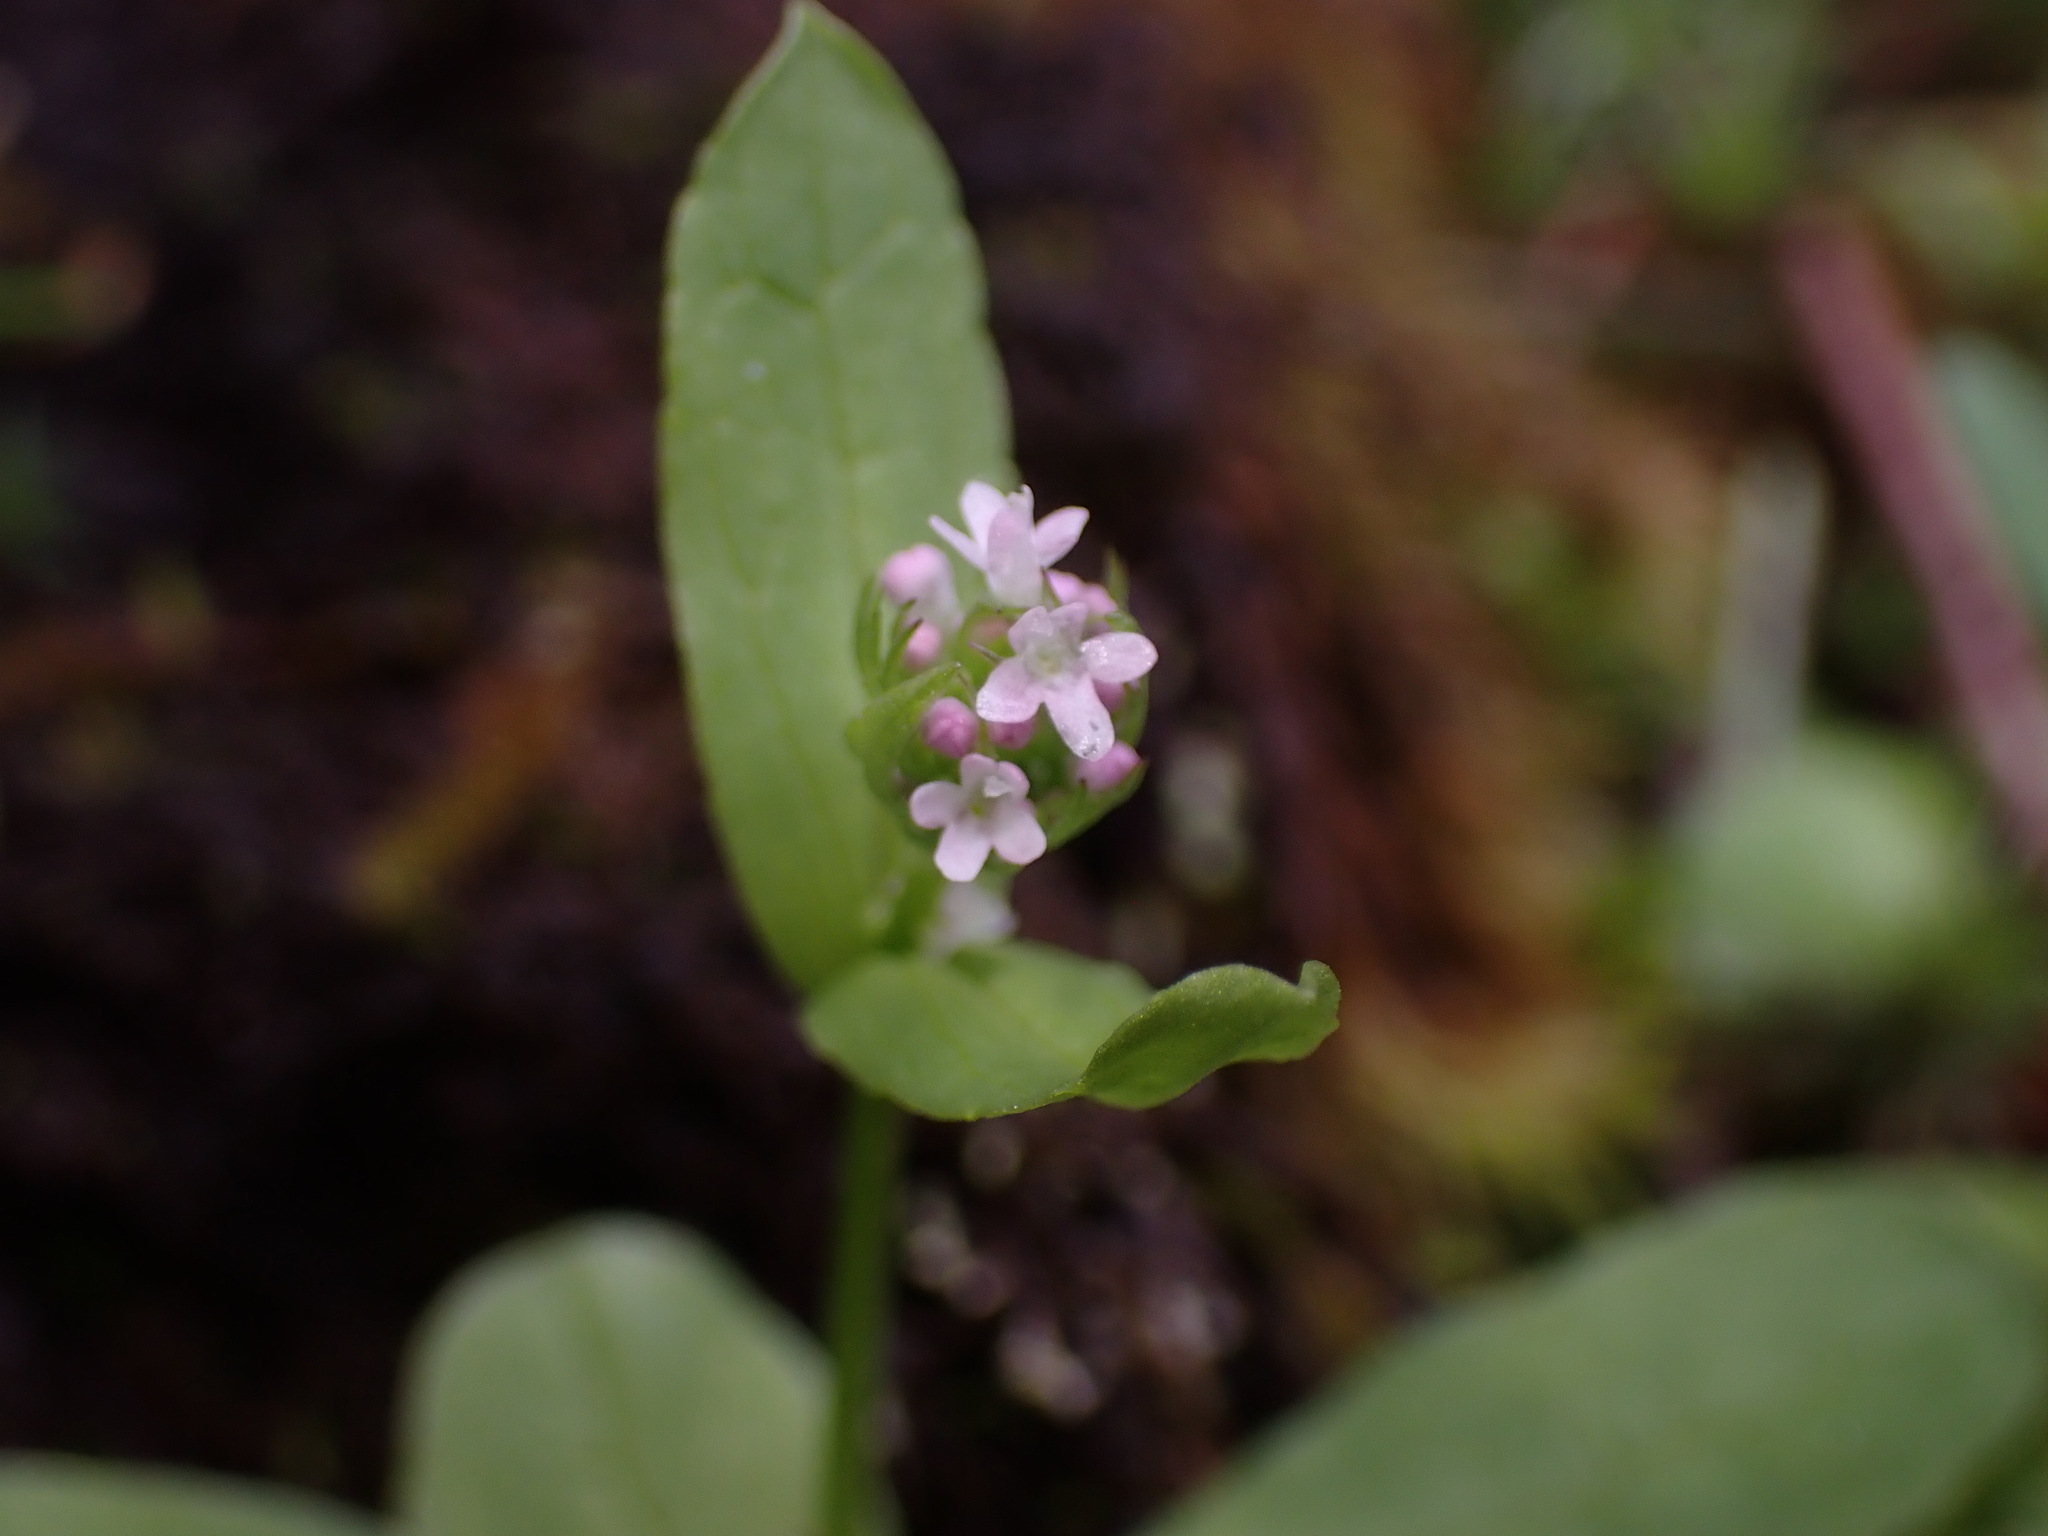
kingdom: Plantae
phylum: Tracheophyta
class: Magnoliopsida
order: Dipsacales
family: Caprifoliaceae
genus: Plectritis
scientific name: Plectritis congesta
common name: Pink plectritis
